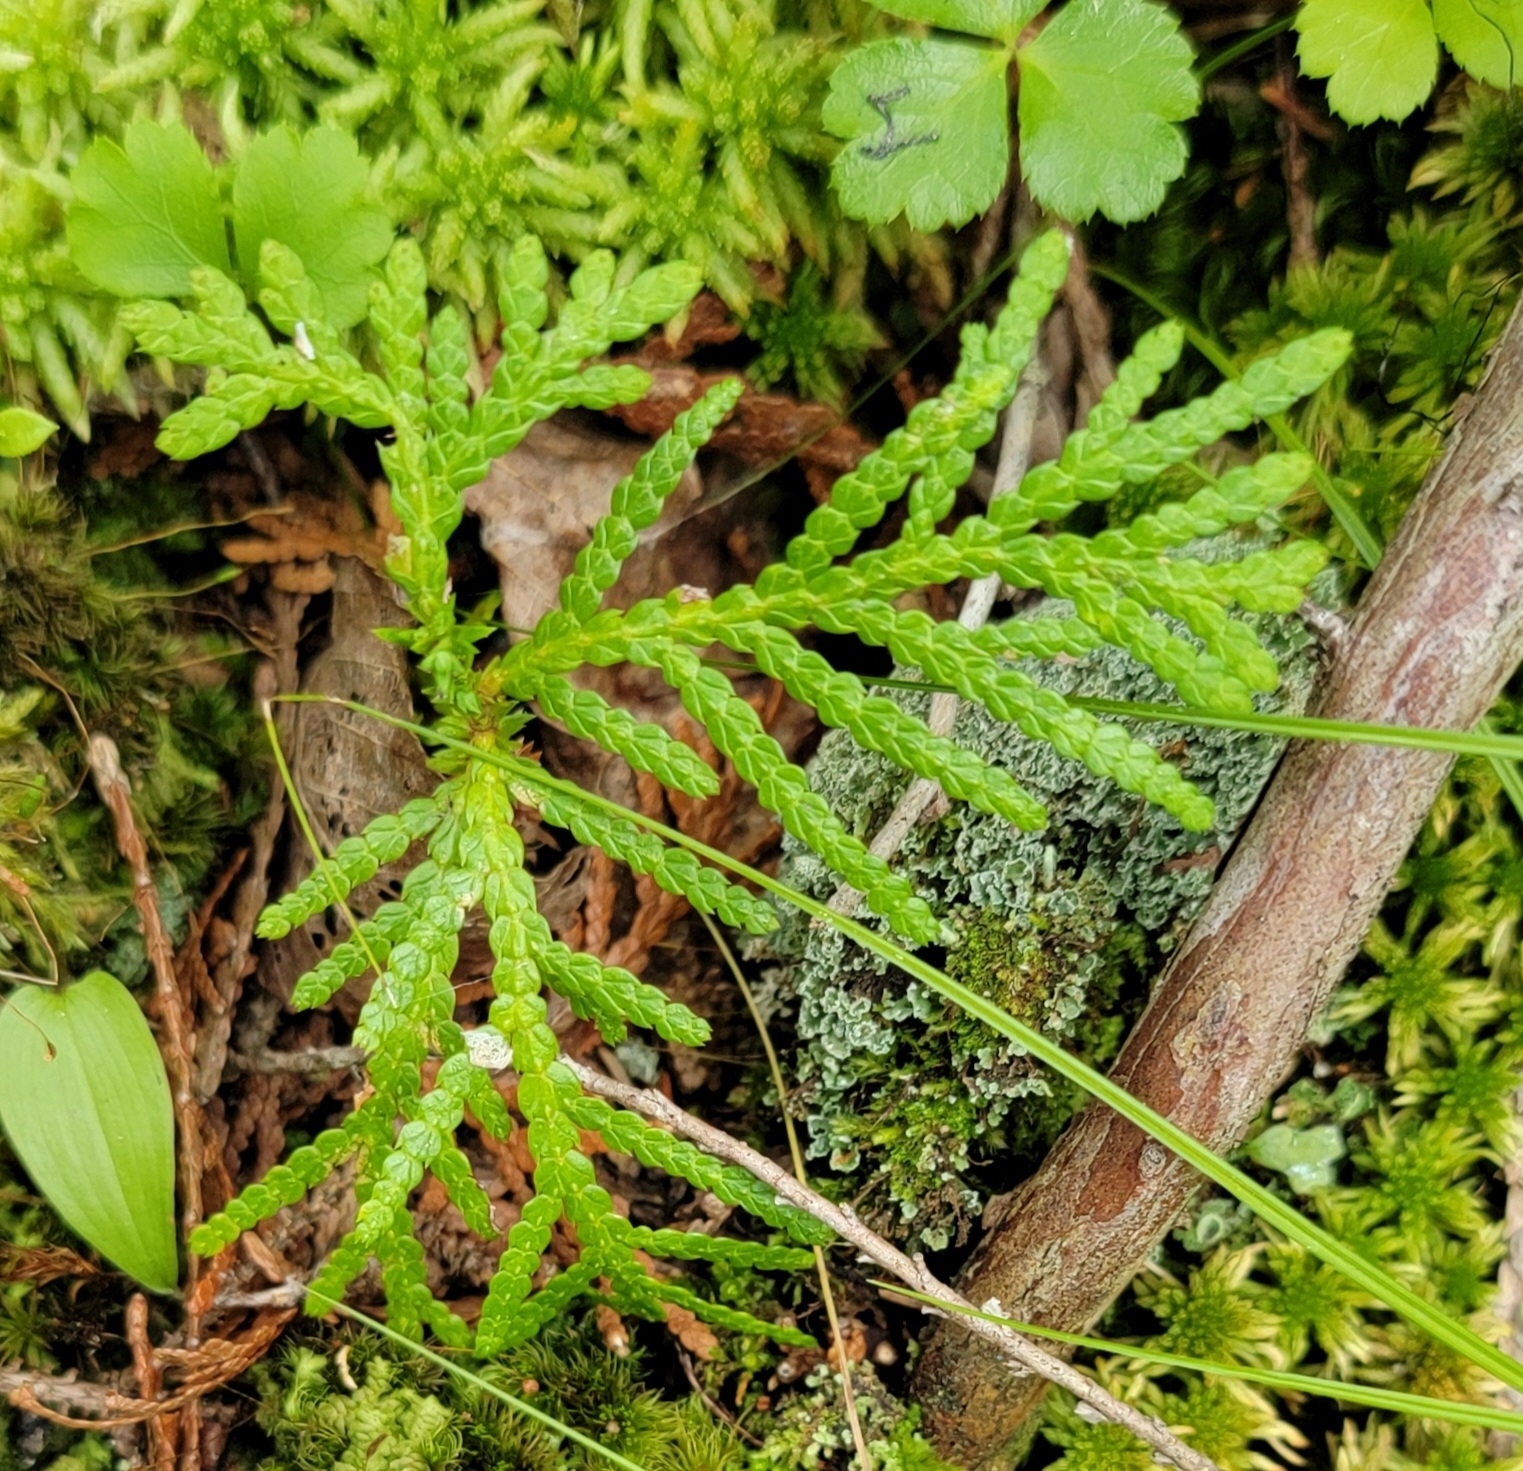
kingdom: Plantae
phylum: Tracheophyta
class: Pinopsida
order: Pinales
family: Cupressaceae
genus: Thuja
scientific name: Thuja occidentalis
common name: Northern white-cedar
